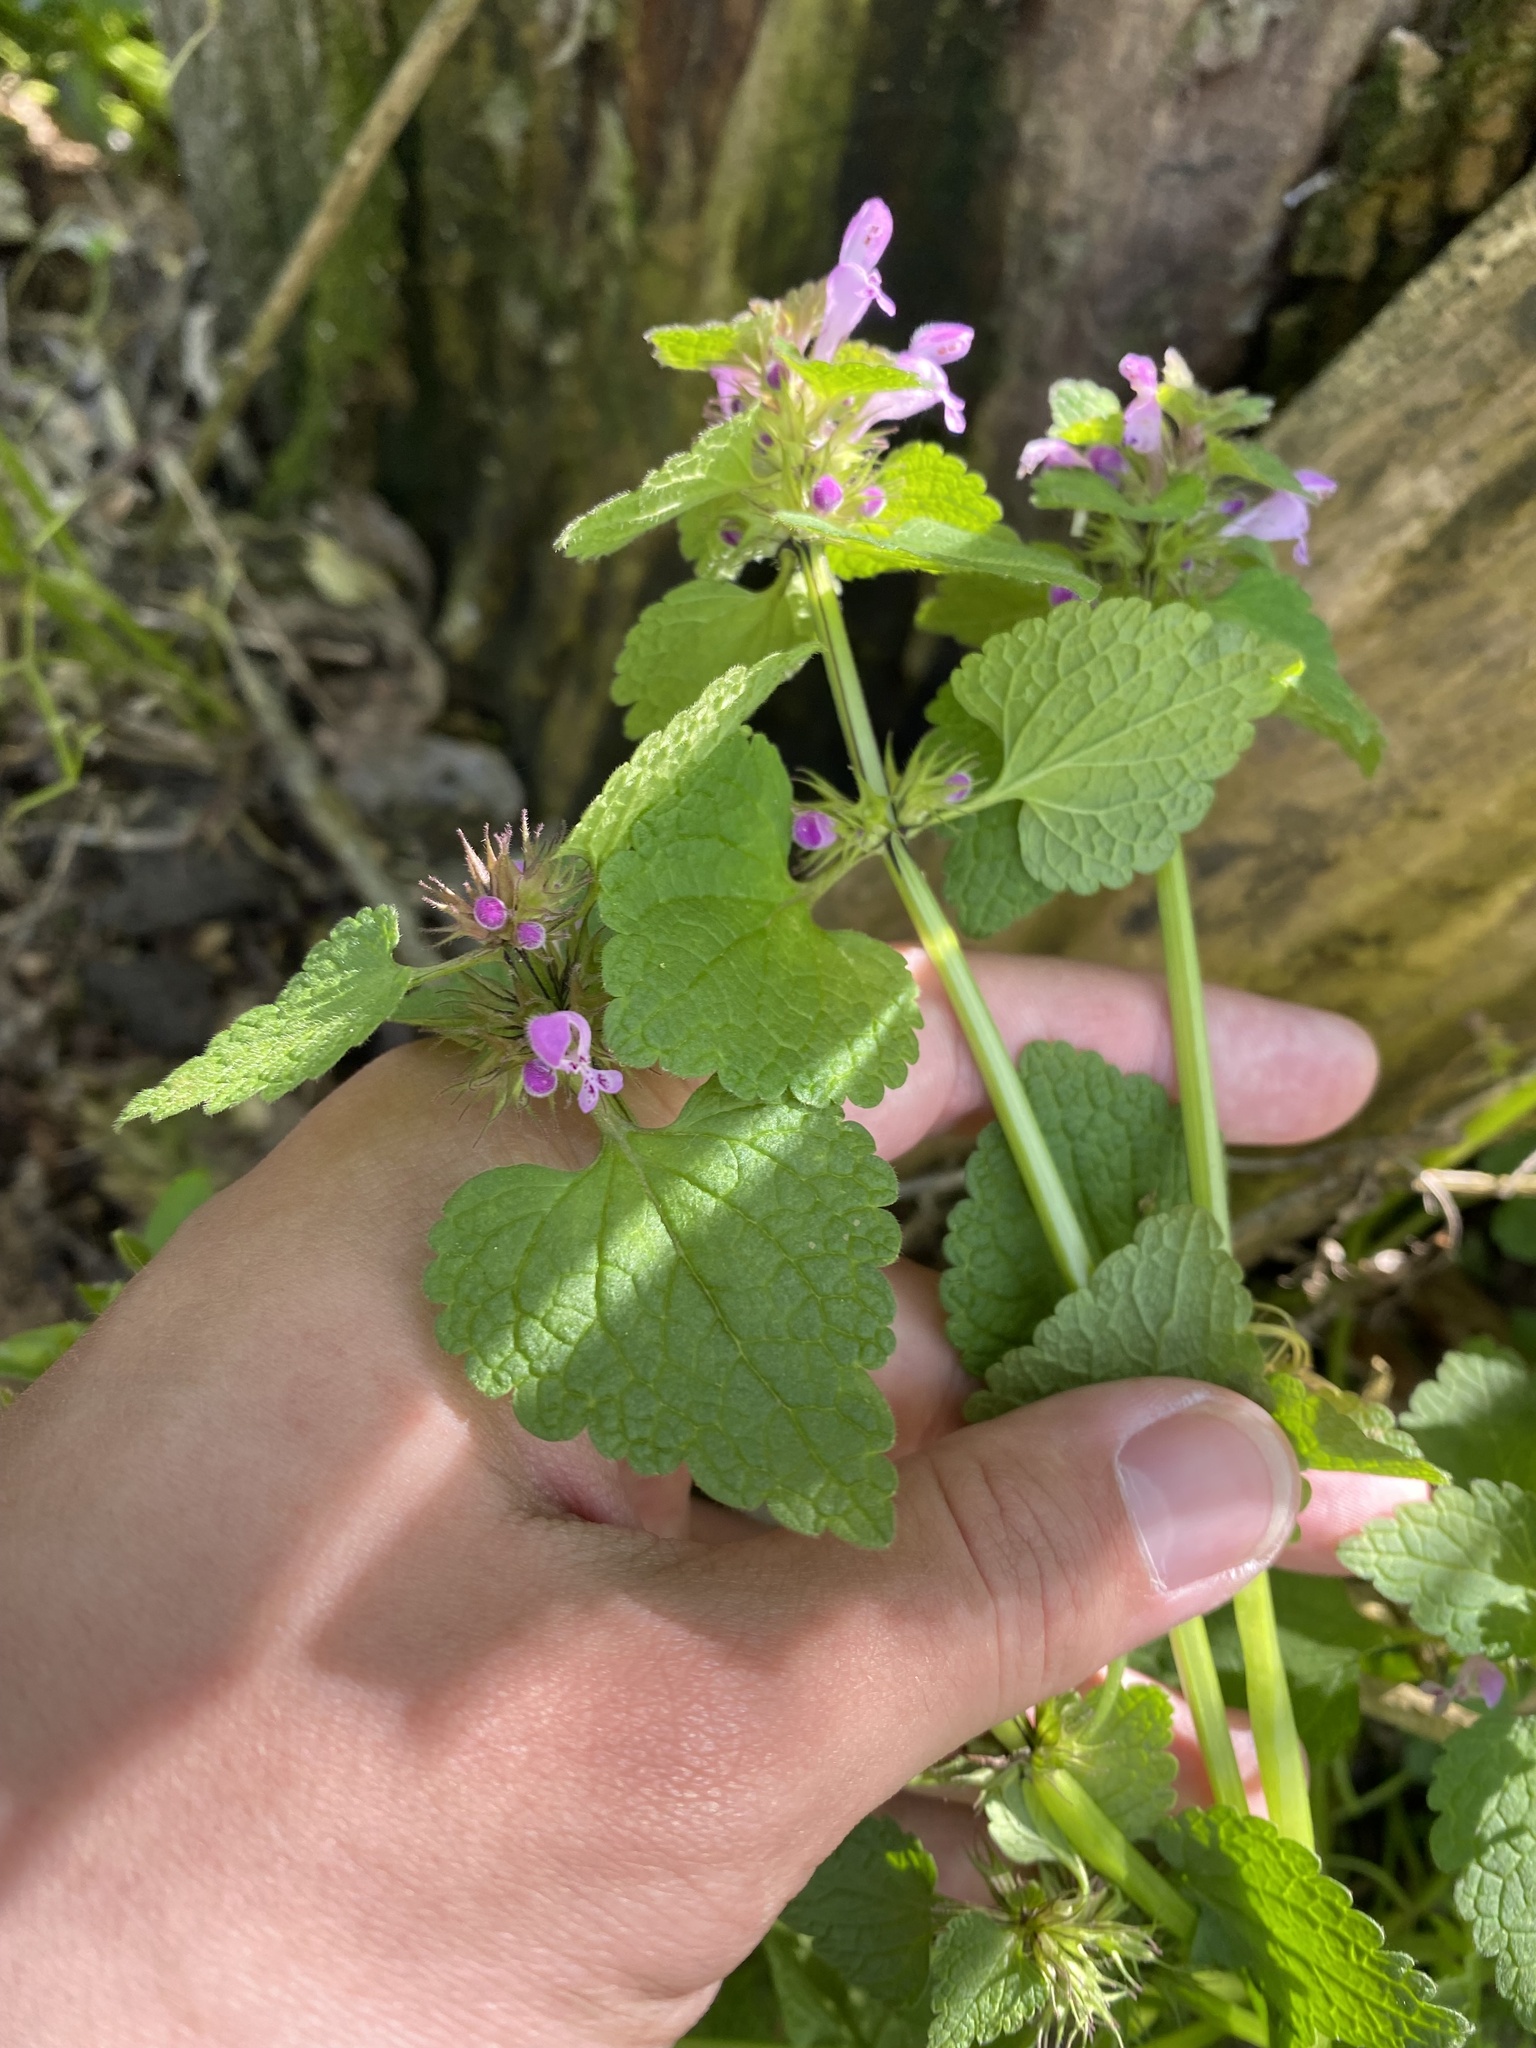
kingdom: Plantae
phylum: Tracheophyta
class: Magnoliopsida
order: Lamiales
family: Lamiaceae
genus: Lamium
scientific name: Lamium purpureum
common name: Red dead-nettle
